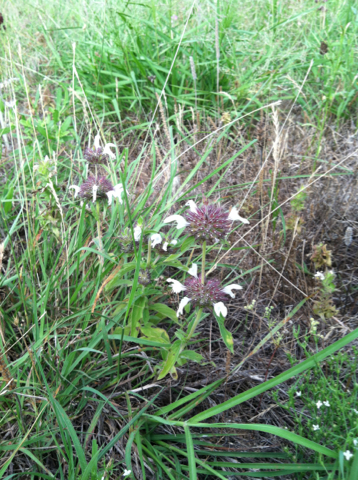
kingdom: Plantae
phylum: Tracheophyta
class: Magnoliopsida
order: Lamiales
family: Lamiaceae
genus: Monarda
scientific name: Monarda clinopodioides
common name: Basil beebalm
